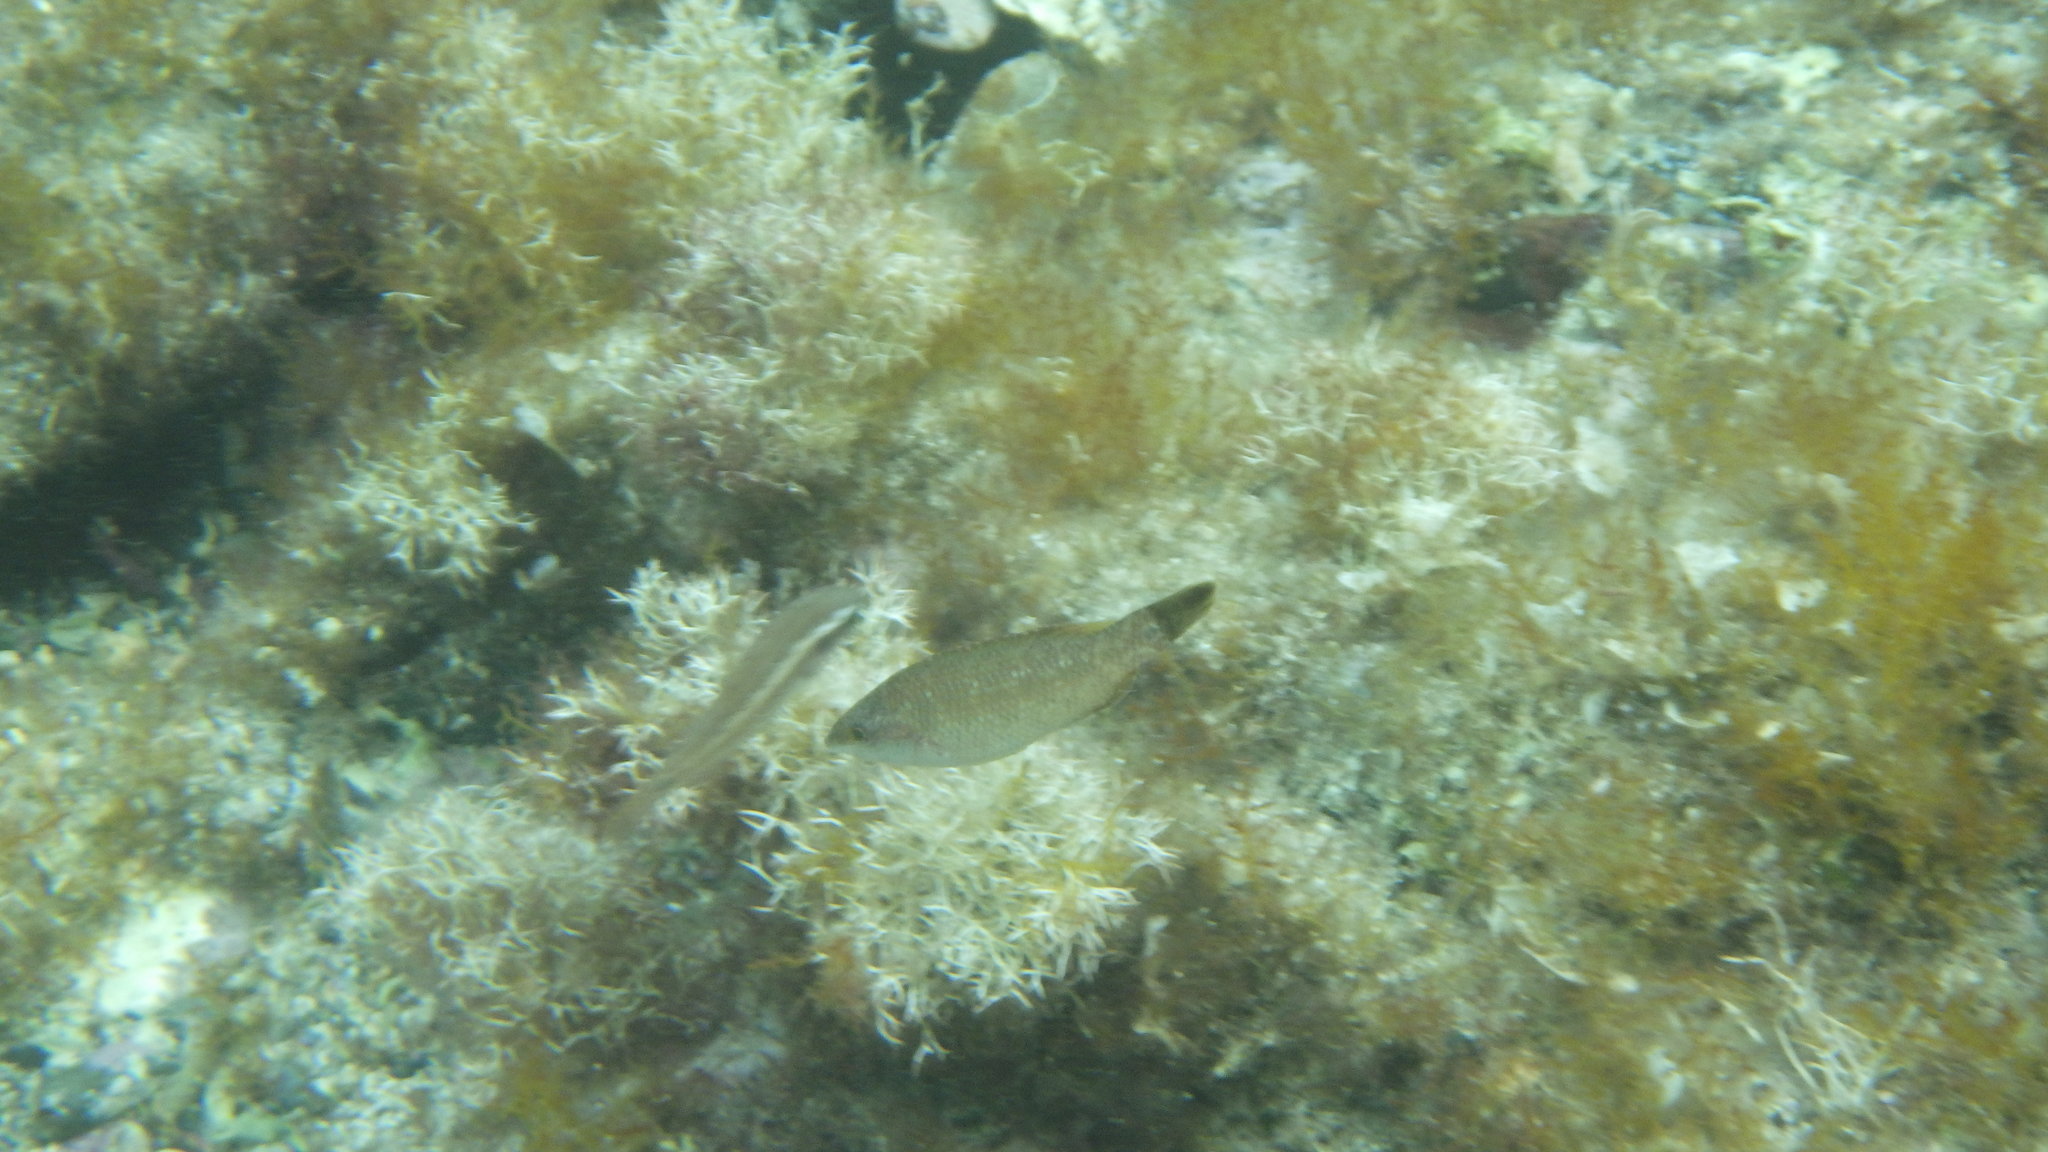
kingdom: Animalia
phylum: Chordata
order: Perciformes
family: Labridae
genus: Symphodus
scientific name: Symphodus tinca
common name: Peacock wrasse
